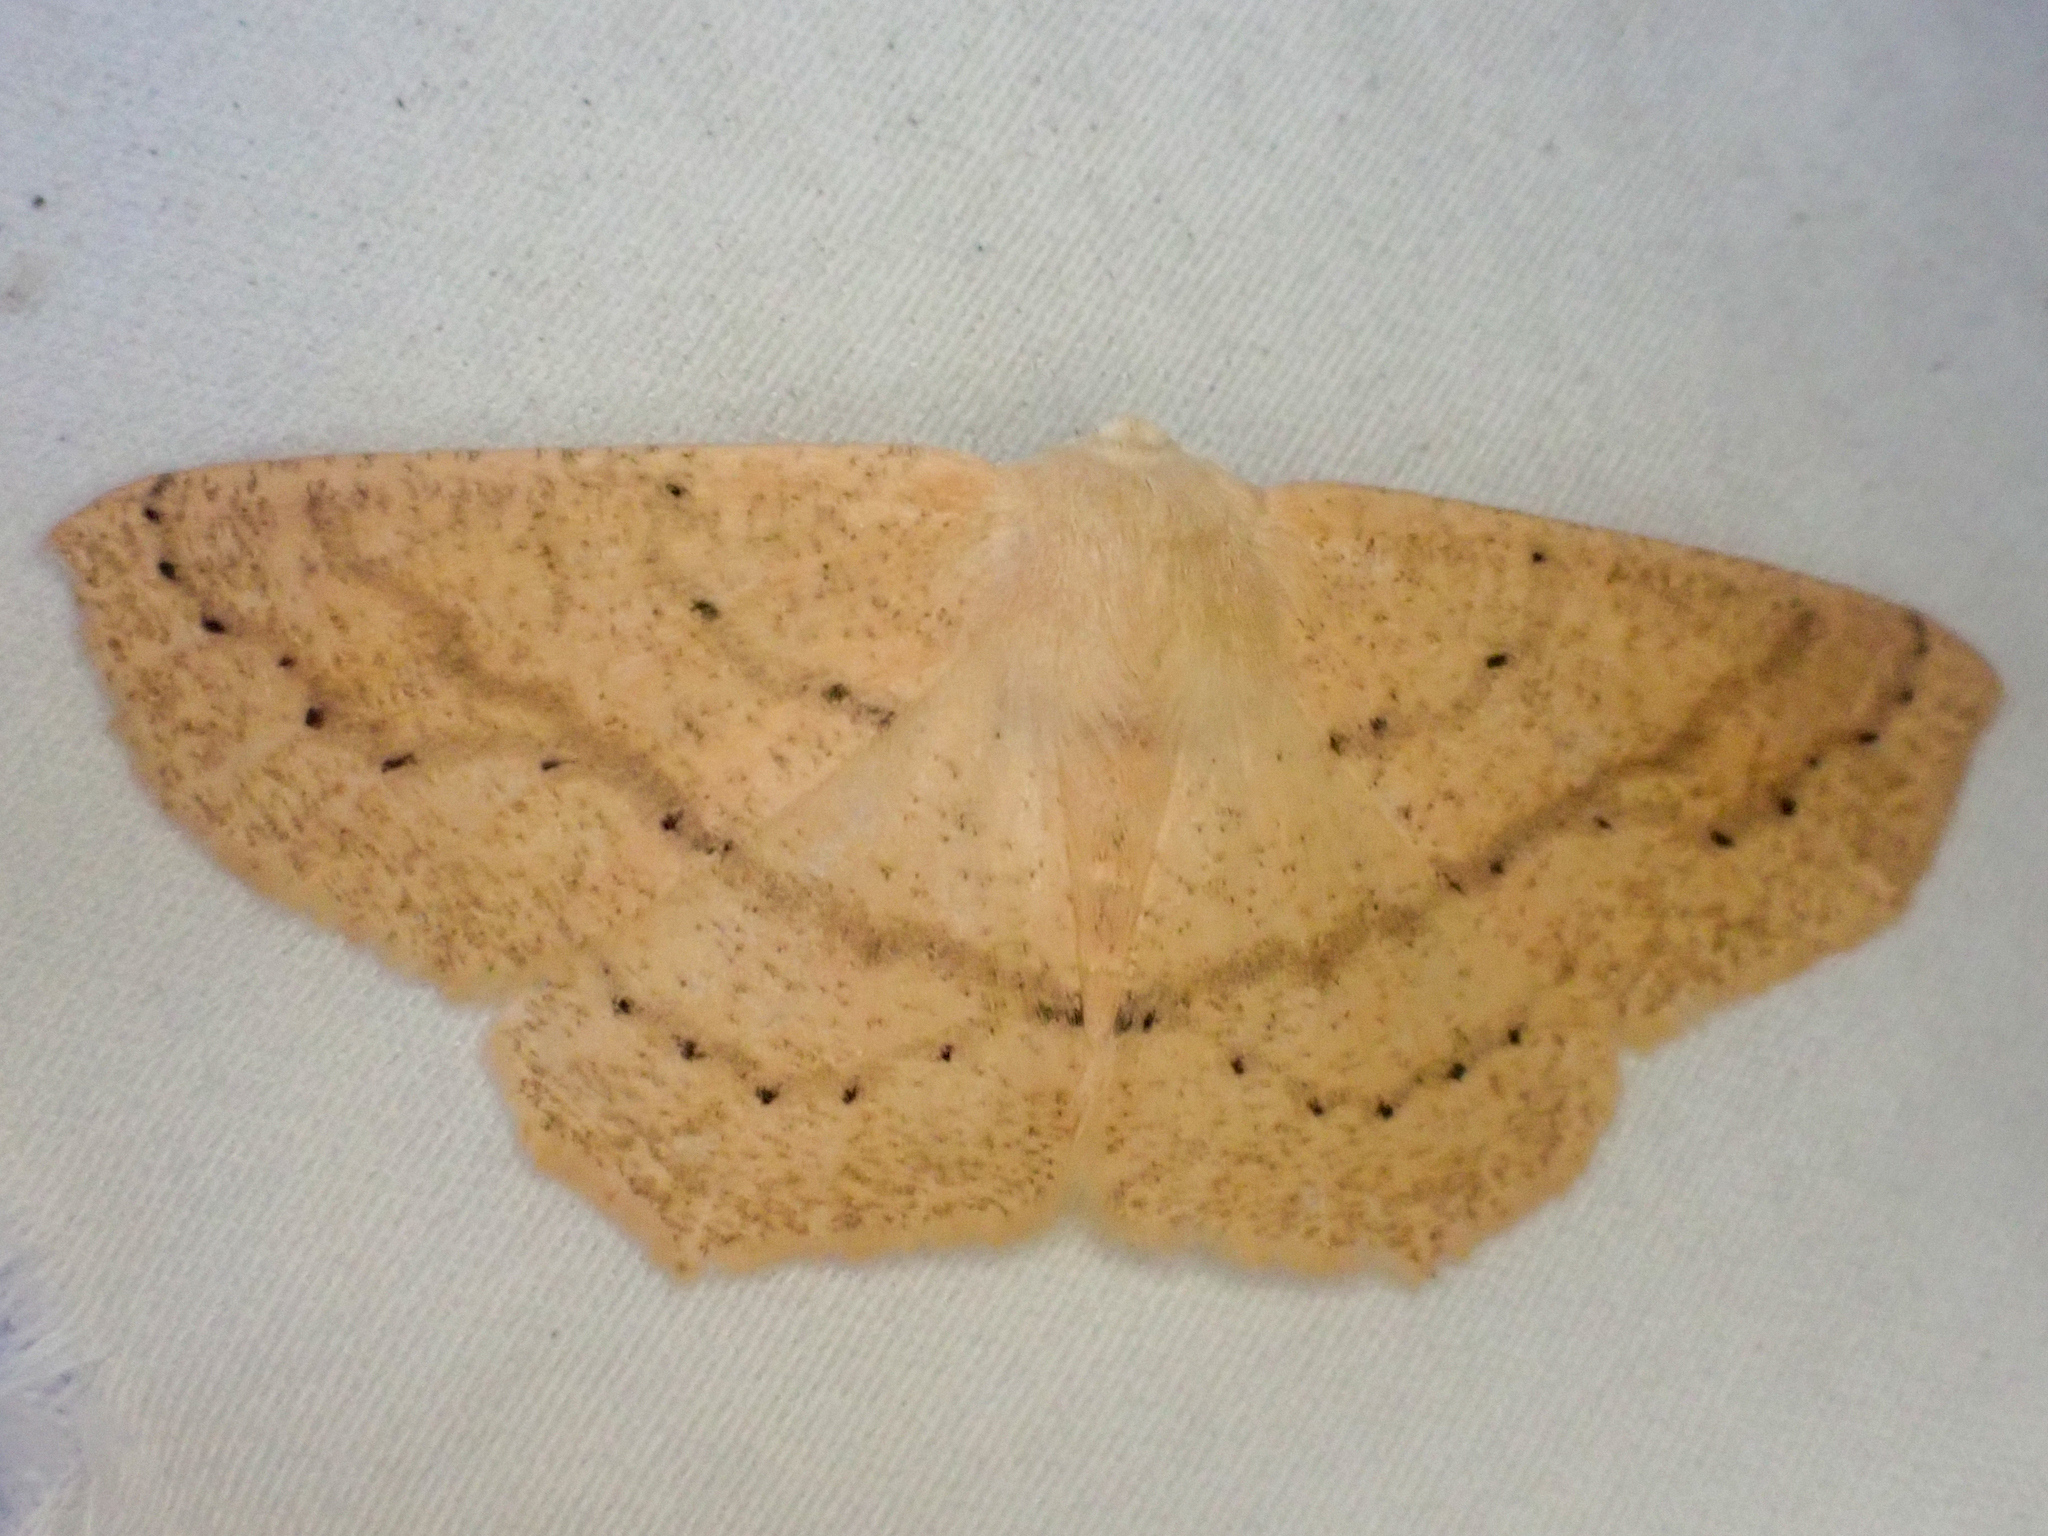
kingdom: Animalia
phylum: Arthropoda
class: Insecta
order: Lepidoptera
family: Geometridae
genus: Sabulodes
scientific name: Sabulodes aegrotata
